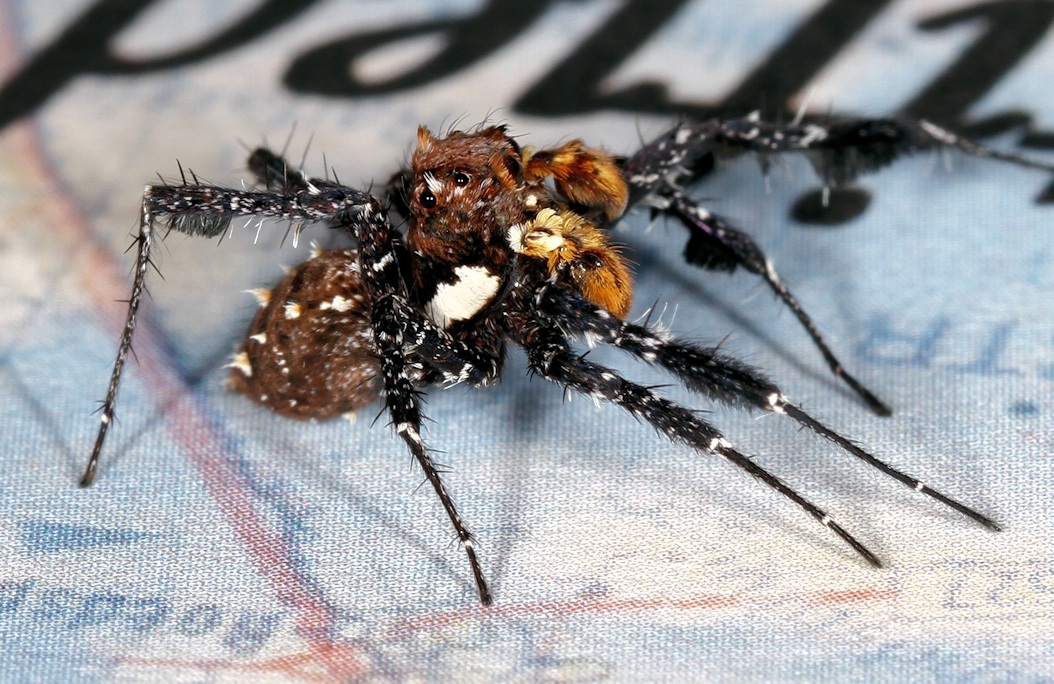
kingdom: Animalia
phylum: Arthropoda
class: Arachnida
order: Araneae
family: Salticidae
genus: Portia
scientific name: Portia schultzi
